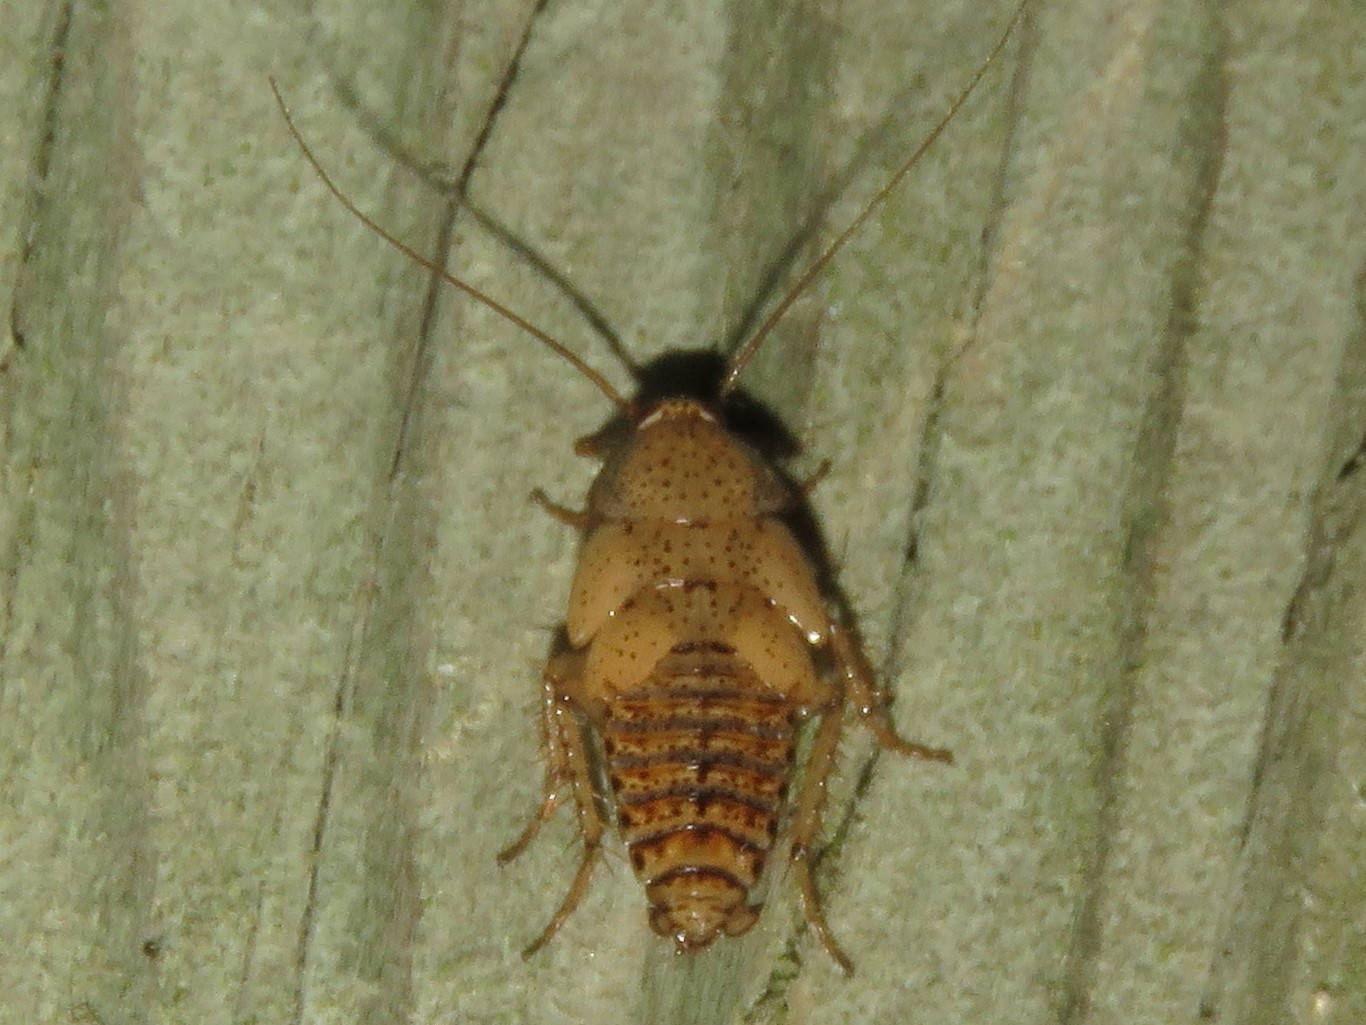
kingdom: Animalia
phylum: Arthropoda
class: Insecta
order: Blattodea
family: Ectobiidae
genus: Ectobius
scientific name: Ectobius pallidus
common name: Tawny cockroach
